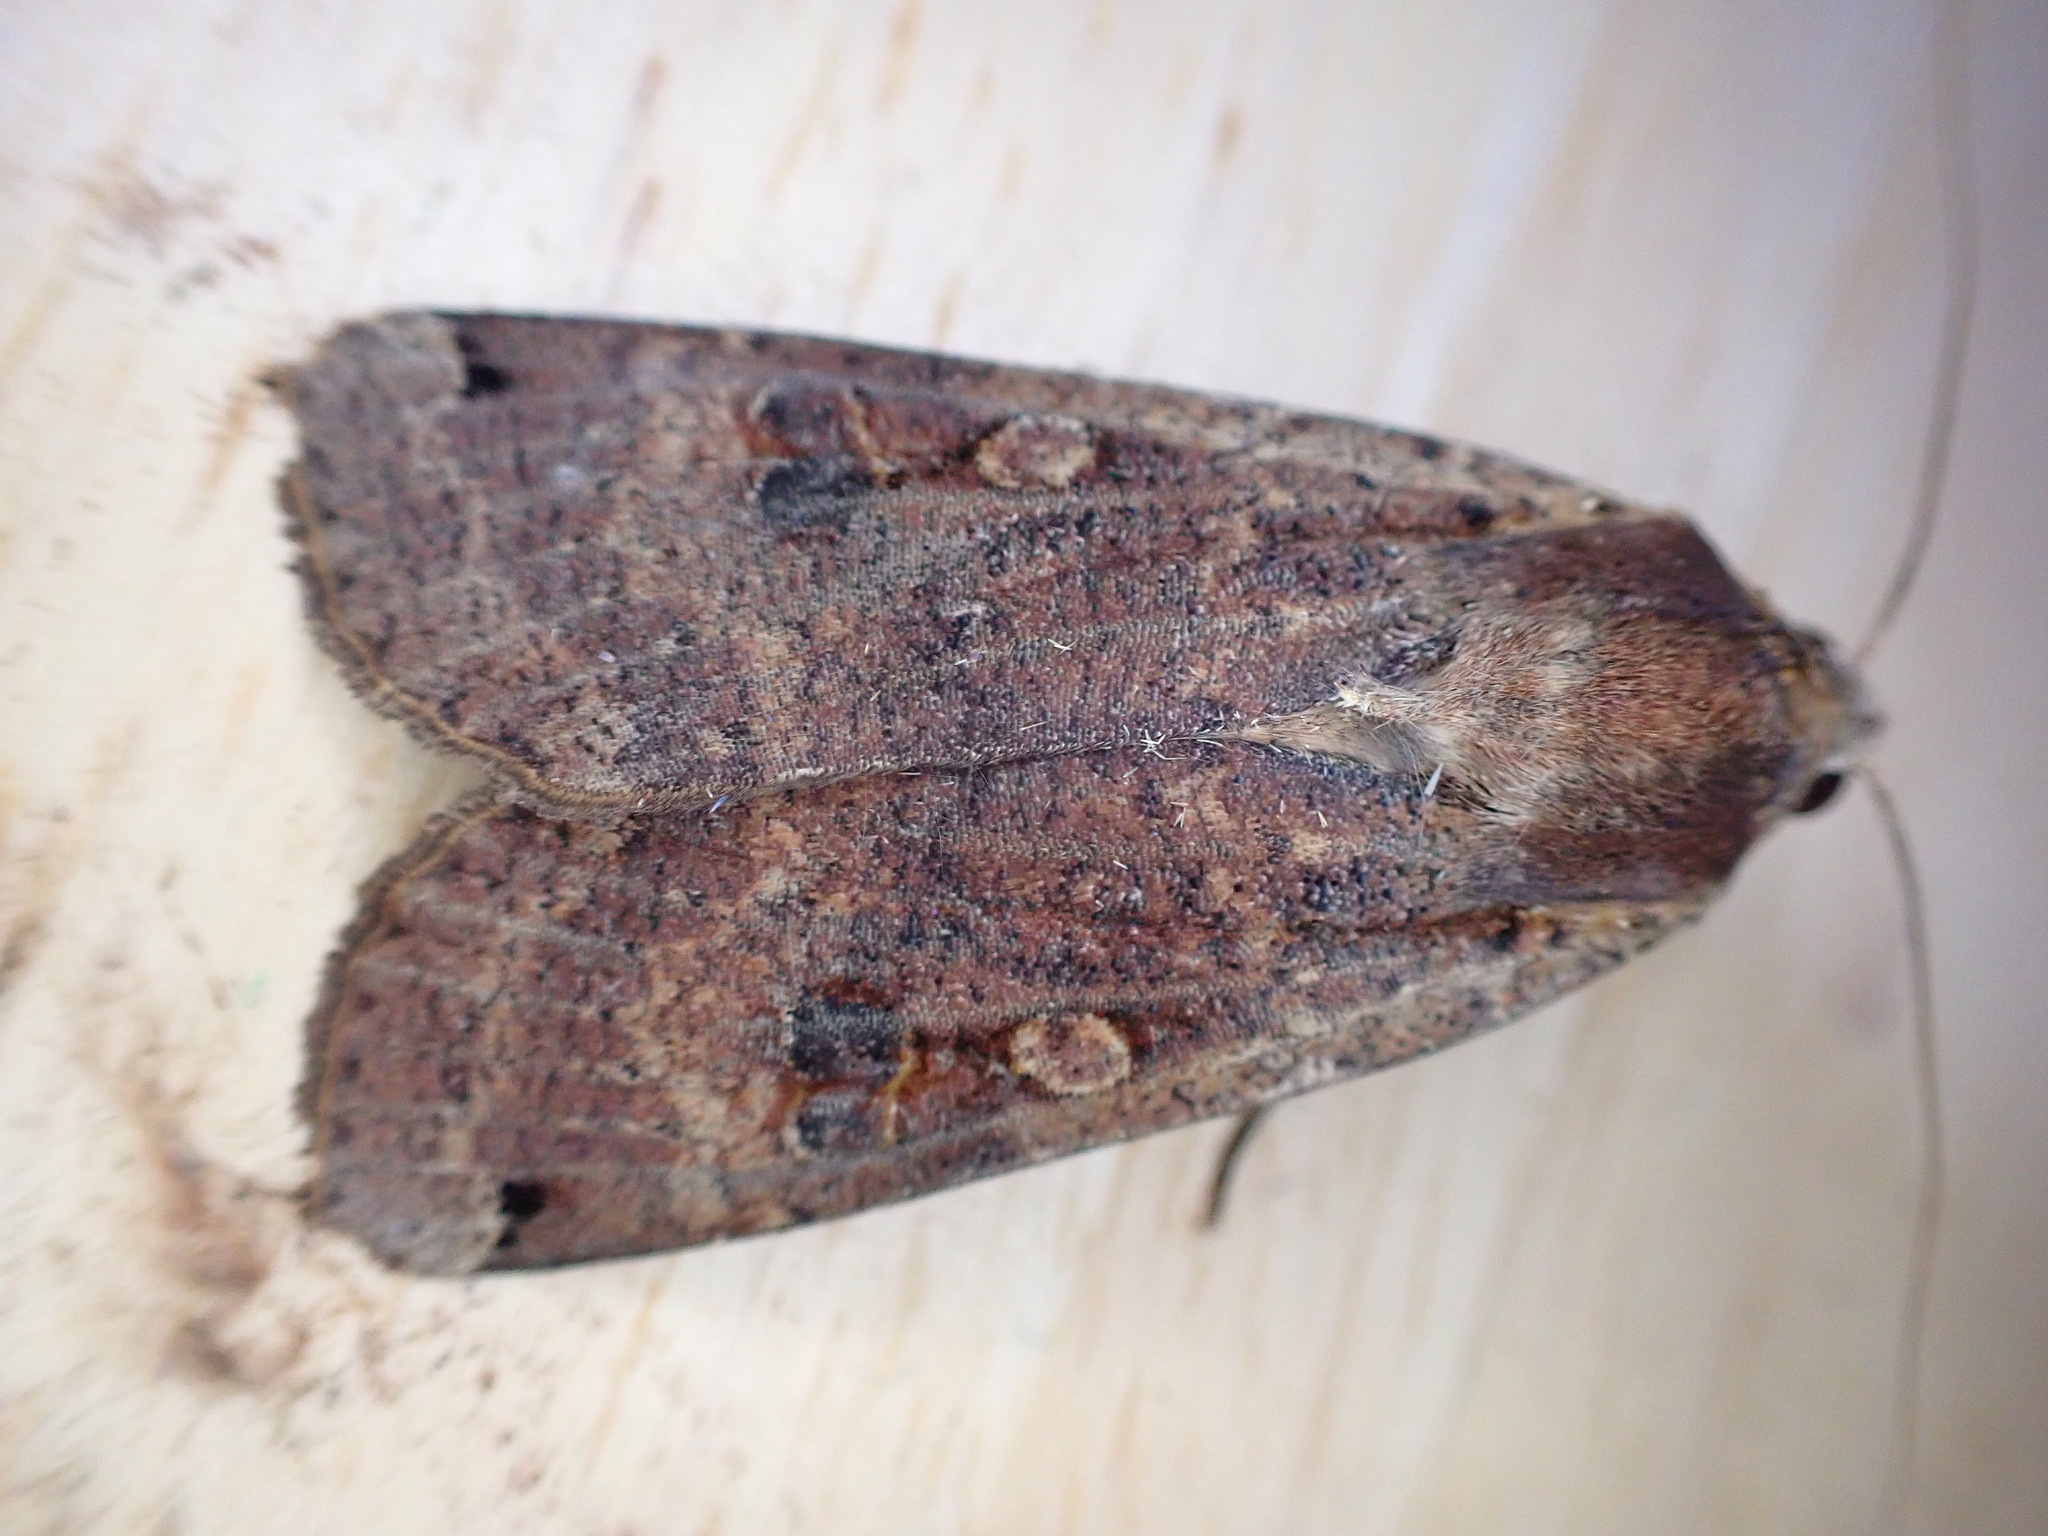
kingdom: Animalia
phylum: Arthropoda
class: Insecta
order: Lepidoptera
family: Noctuidae
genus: Noctua
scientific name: Noctua pronuba
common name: Large yellow underwing
